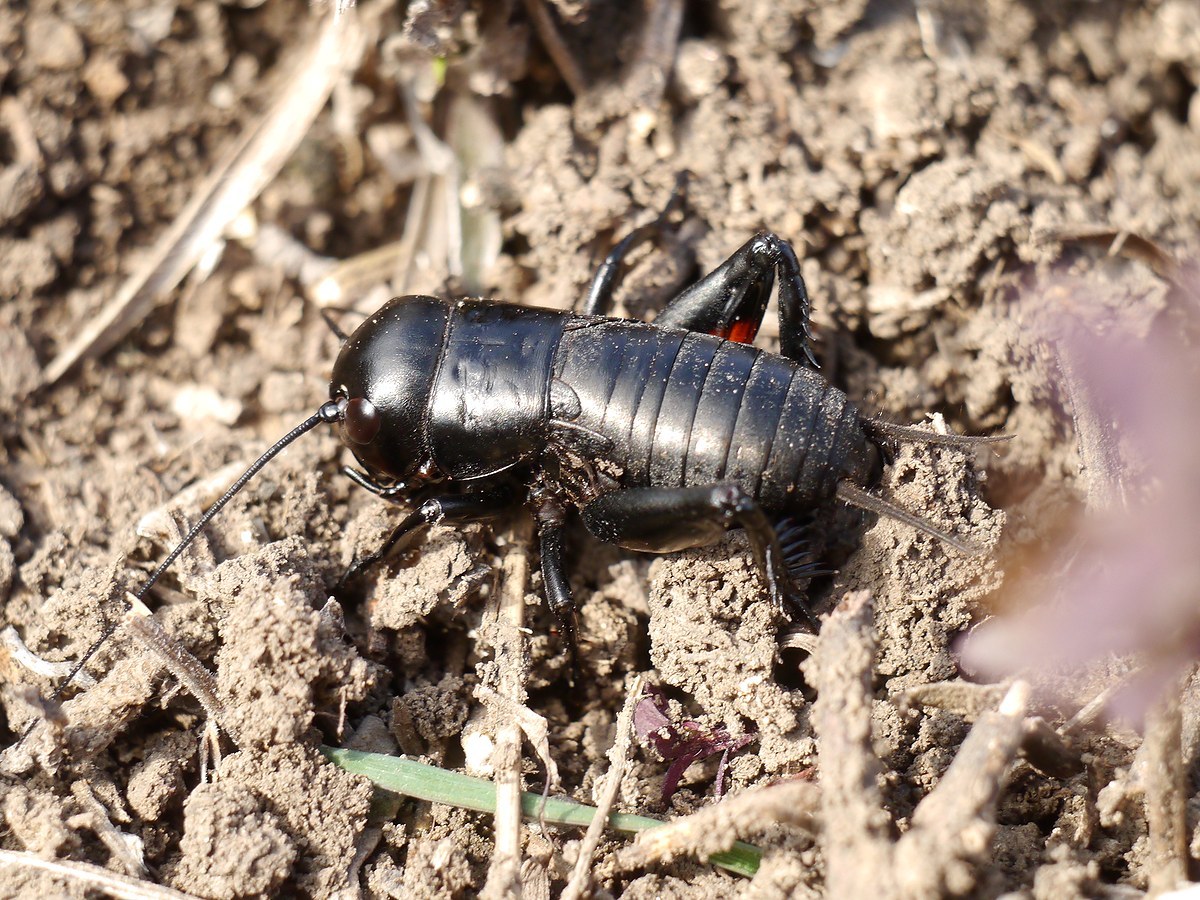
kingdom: Animalia
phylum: Arthropoda
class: Insecta
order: Orthoptera
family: Gryllidae
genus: Gryllus
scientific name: Gryllus campestris
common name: Field cricket
